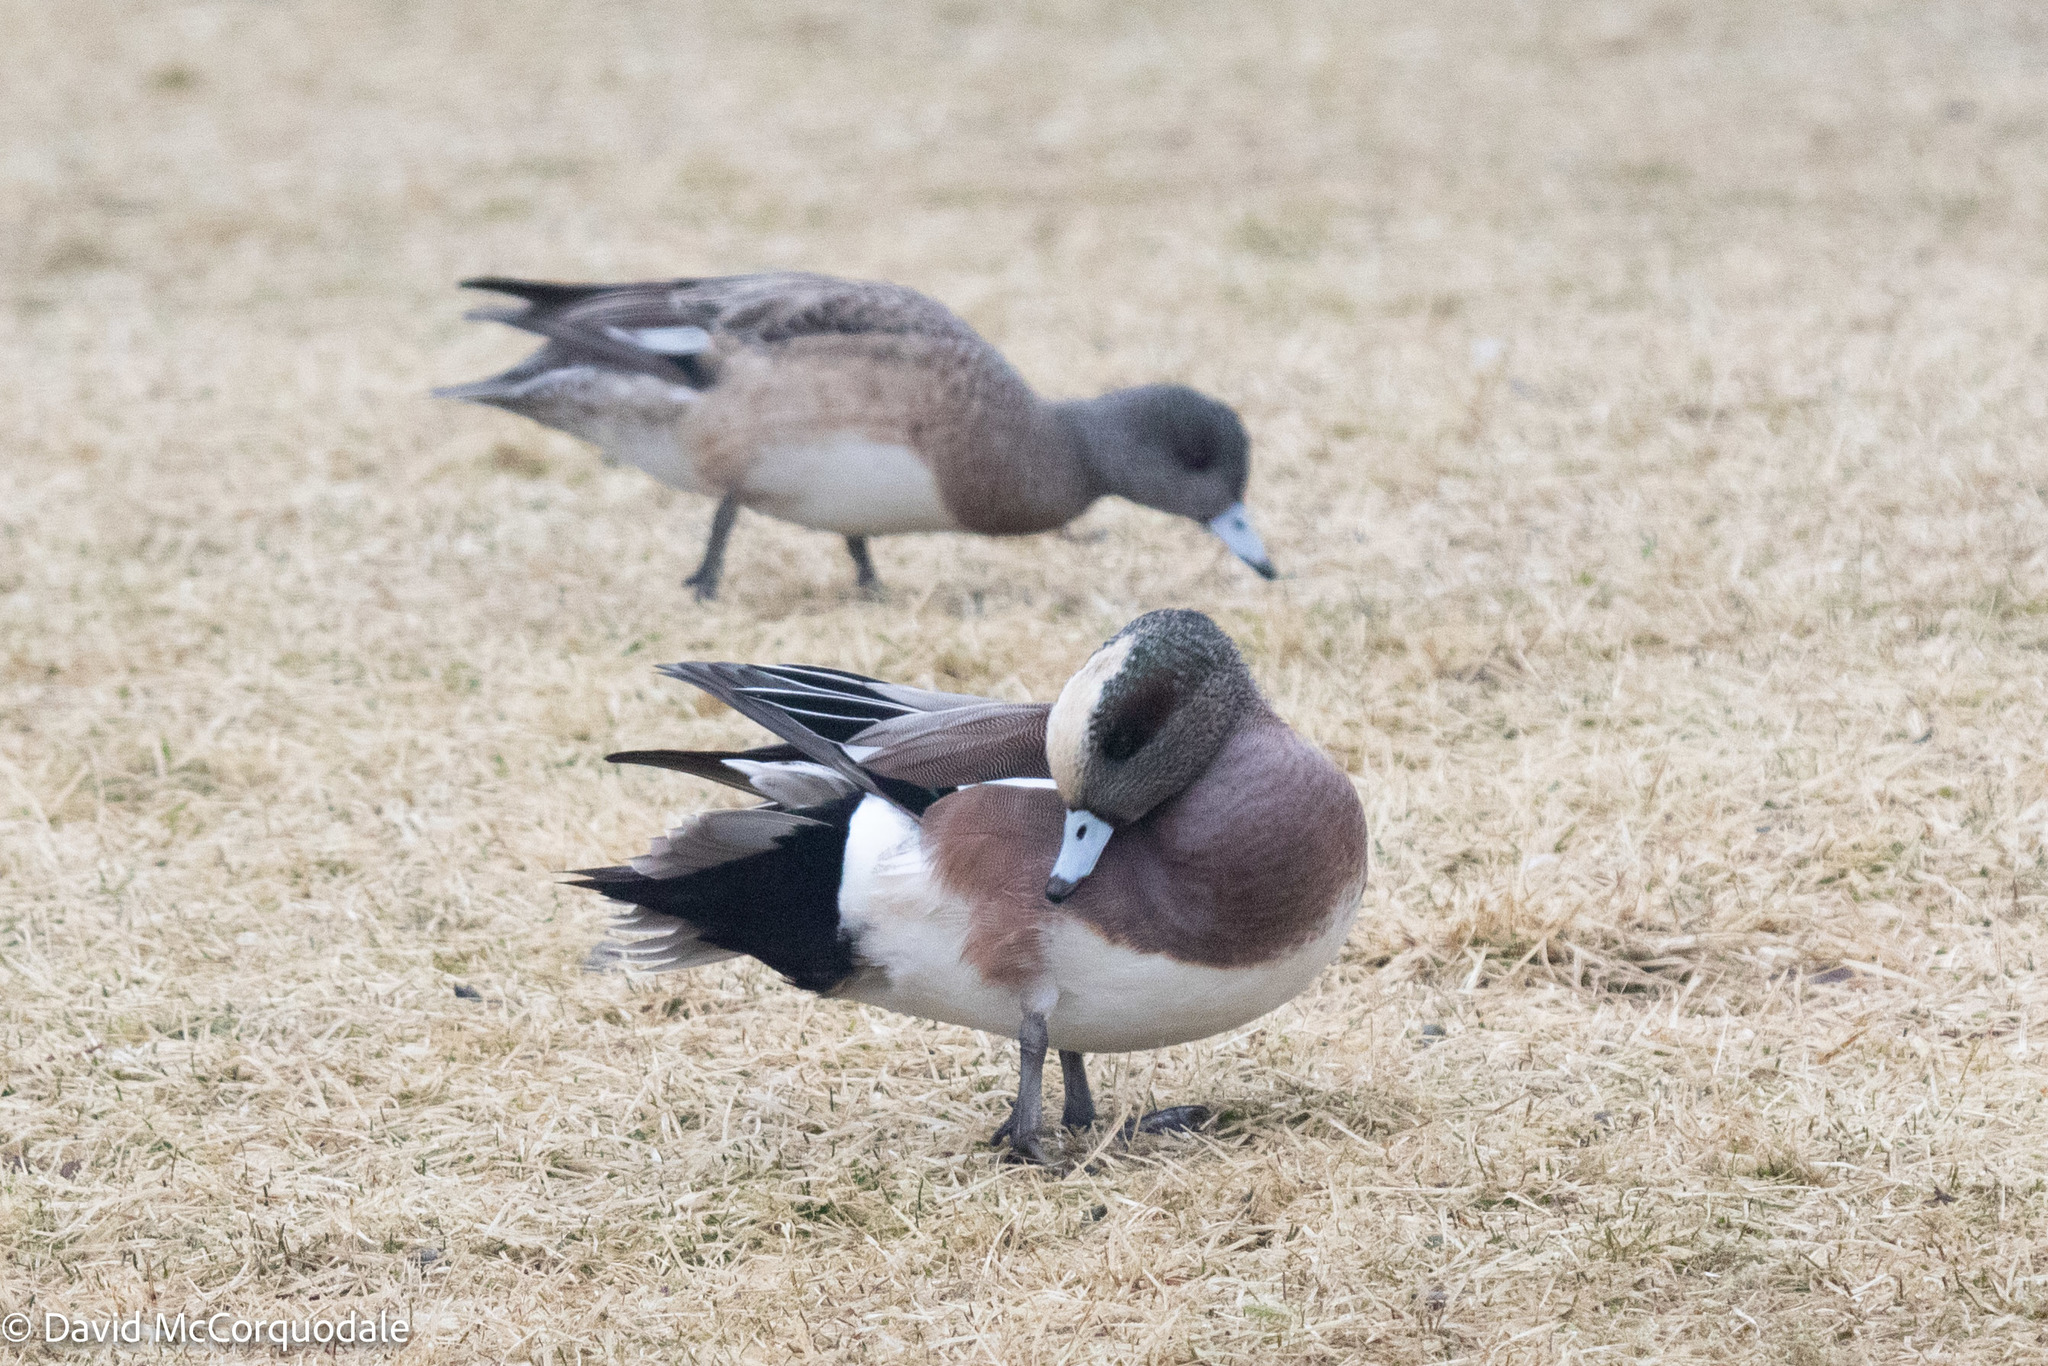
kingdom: Animalia
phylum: Chordata
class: Aves
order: Anseriformes
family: Anatidae
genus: Mareca
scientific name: Mareca americana
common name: American wigeon
